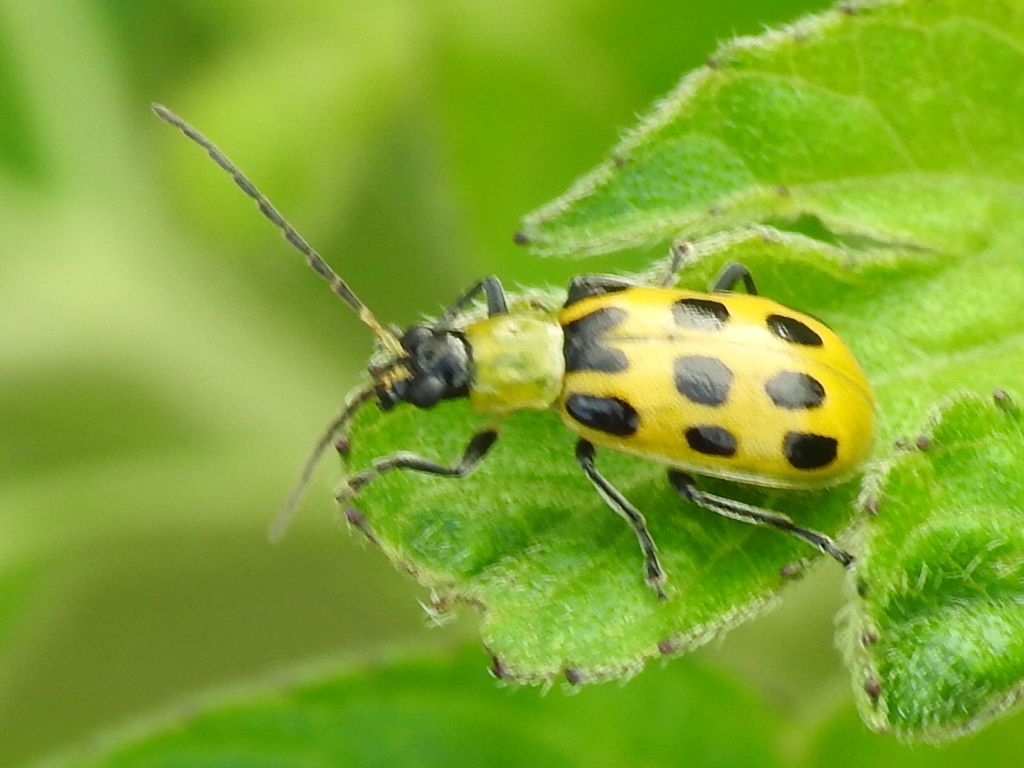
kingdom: Animalia
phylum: Arthropoda
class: Insecta
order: Coleoptera
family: Chrysomelidae
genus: Diabrotica
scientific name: Diabrotica undecimpunctata
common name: Spotted cucumber beetle
